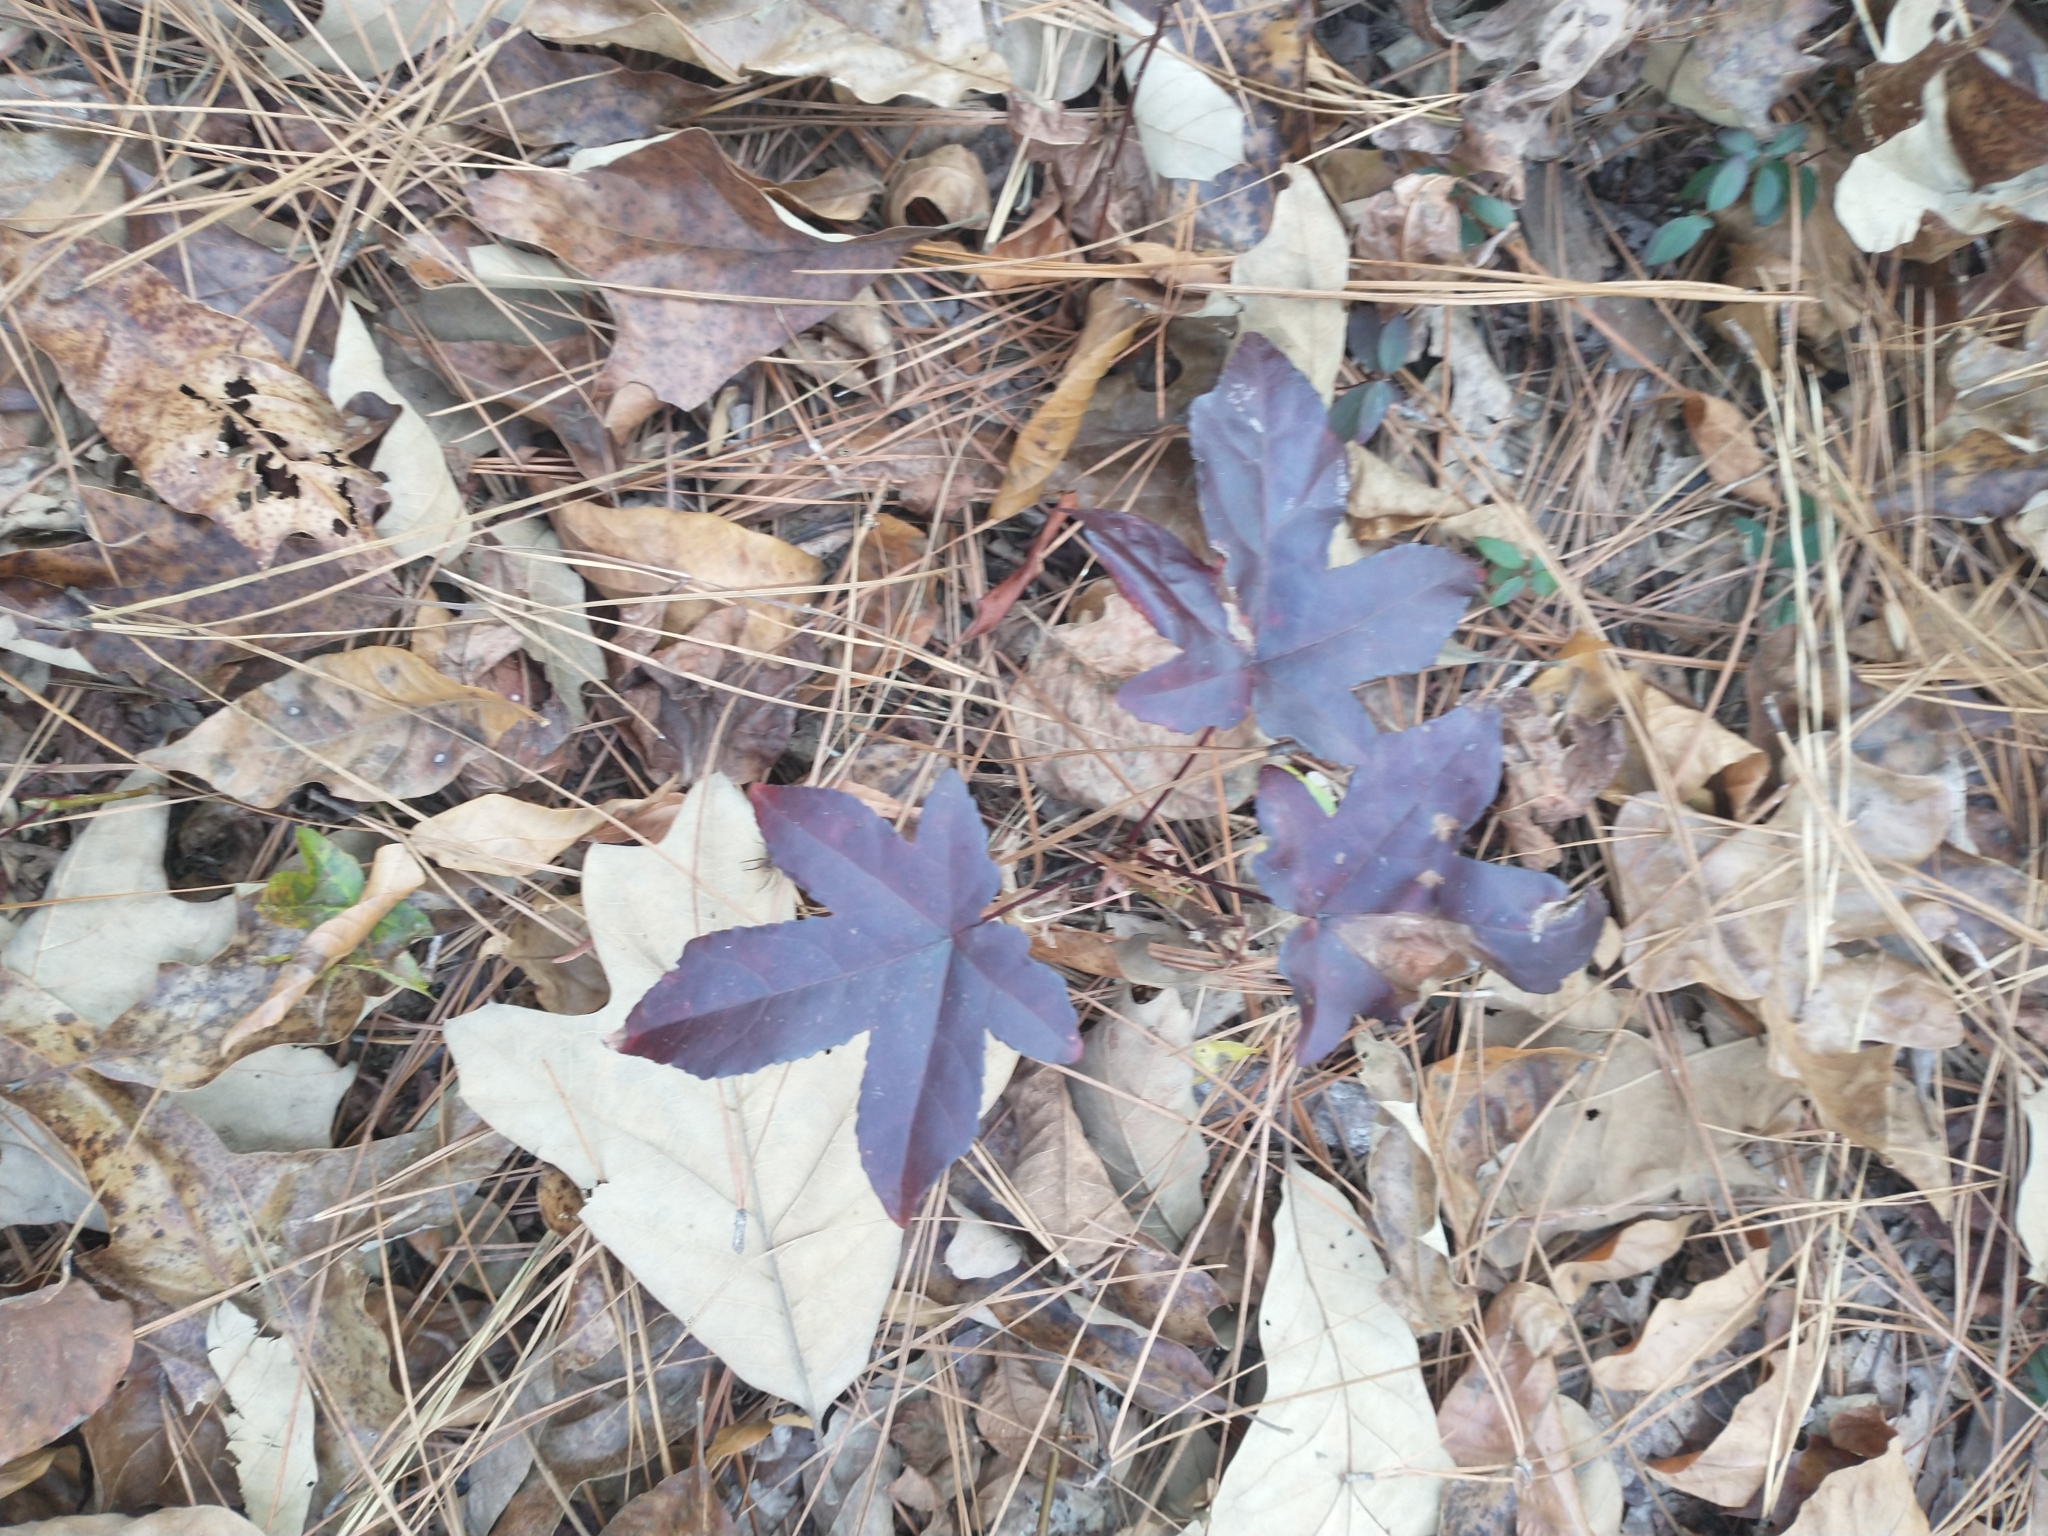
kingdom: Plantae
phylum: Tracheophyta
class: Magnoliopsida
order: Saxifragales
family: Altingiaceae
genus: Liquidambar
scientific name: Liquidambar styraciflua
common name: Sweet gum
